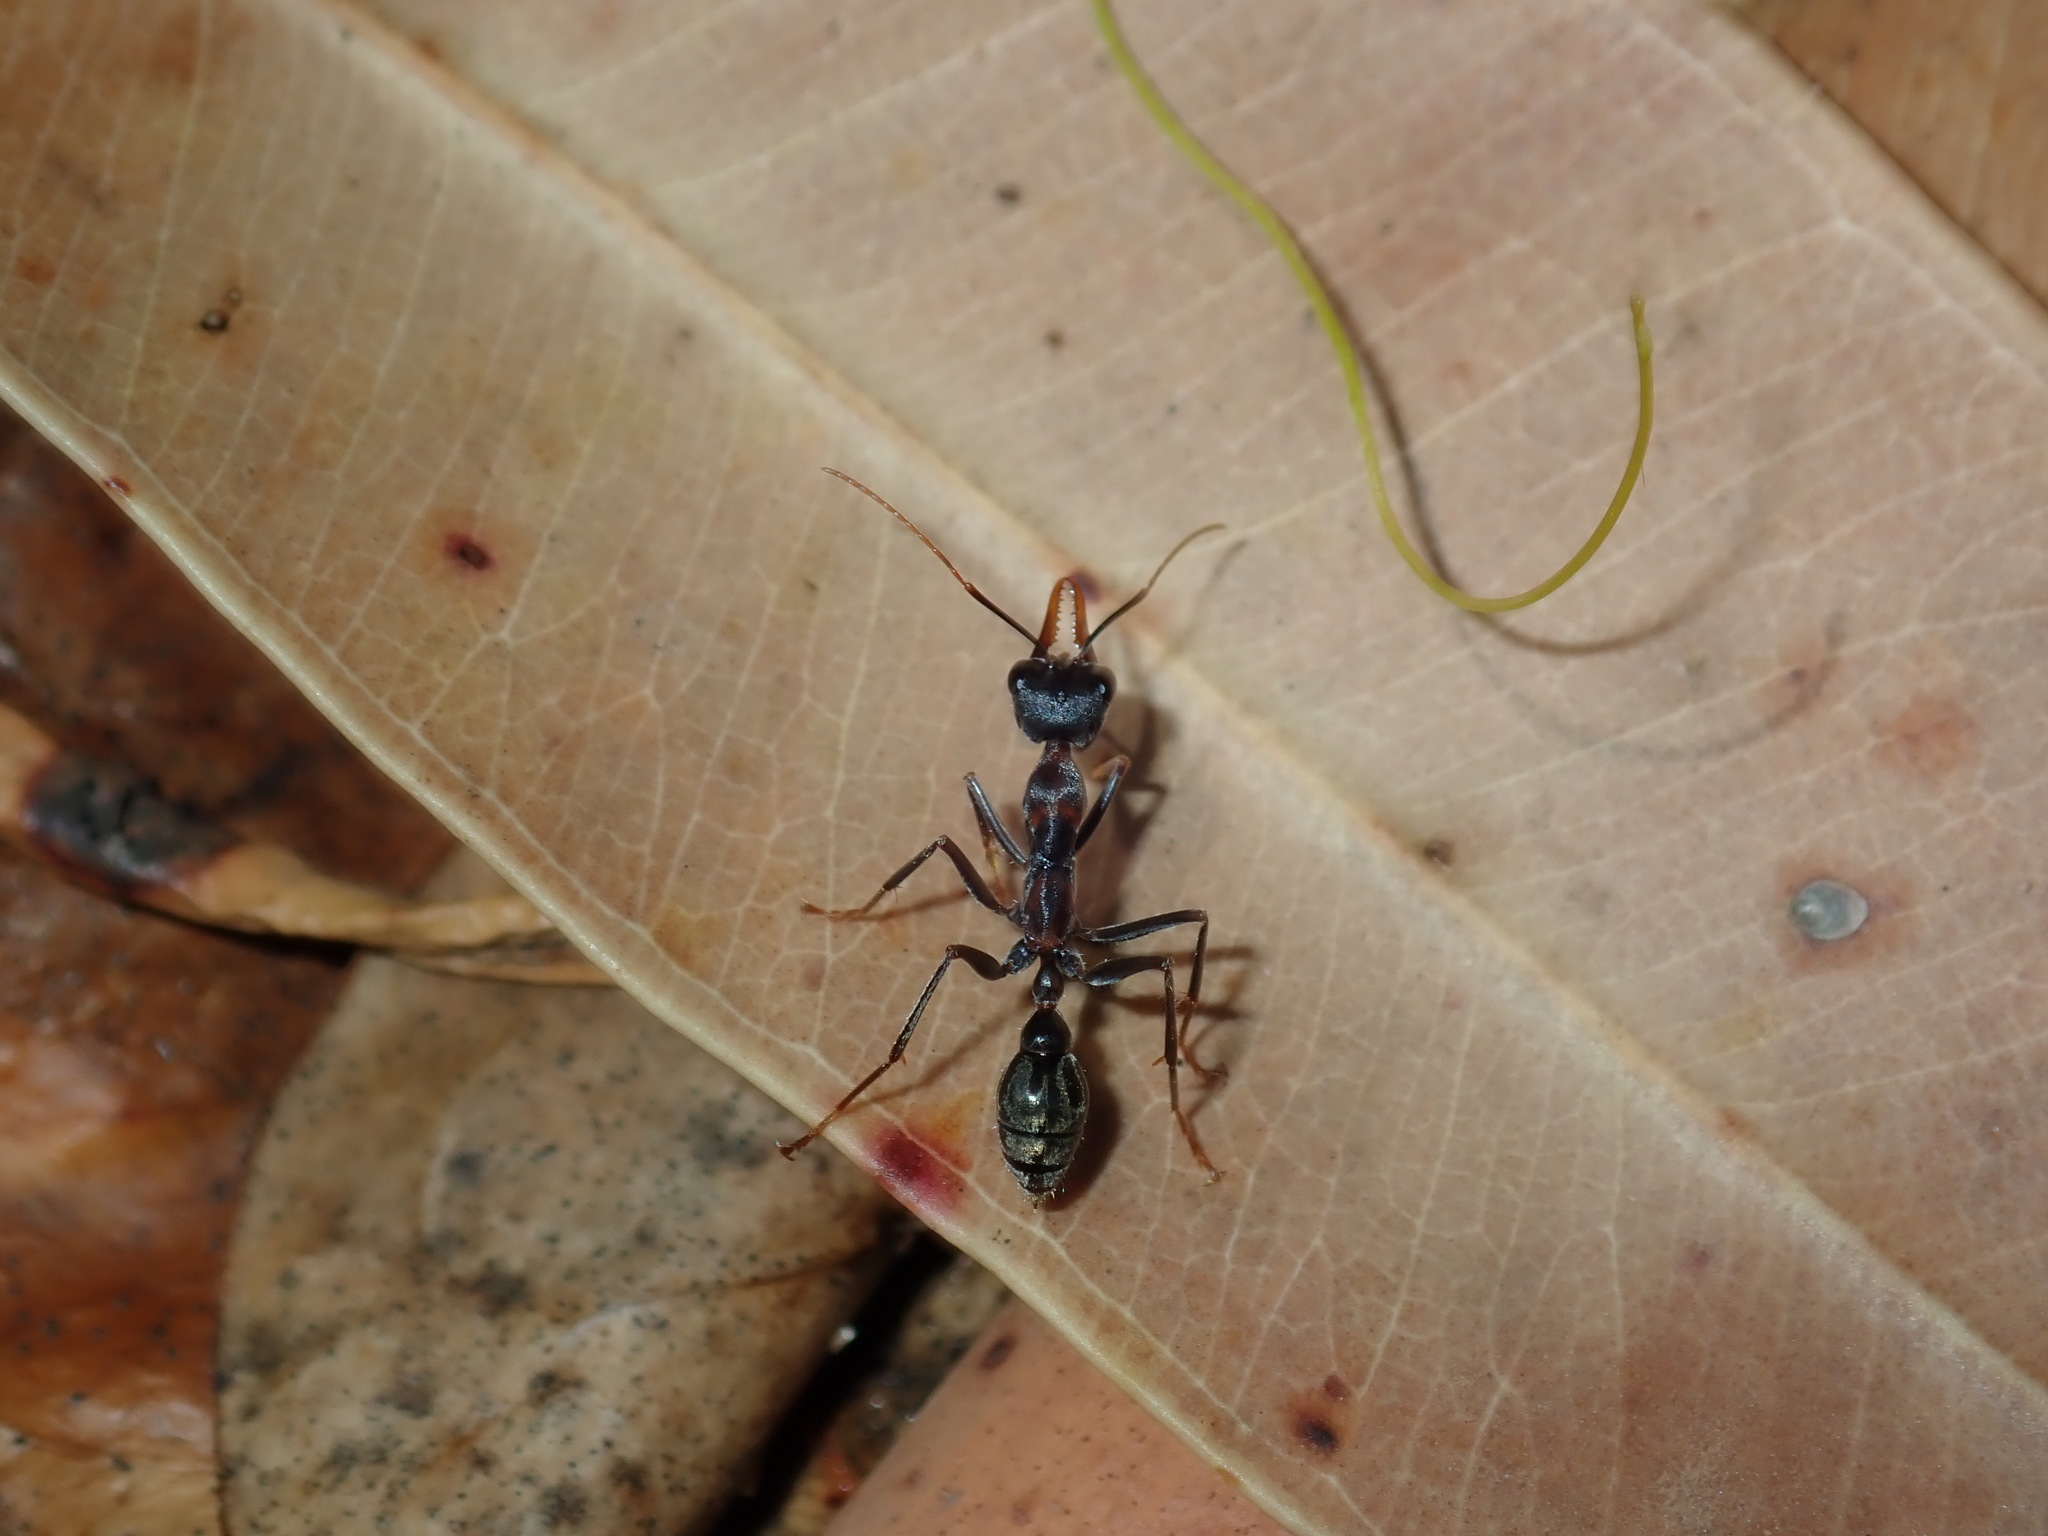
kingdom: Animalia
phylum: Arthropoda
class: Insecta
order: Hymenoptera
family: Formicidae
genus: Myrmecia
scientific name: Myrmecia nigrocincta
